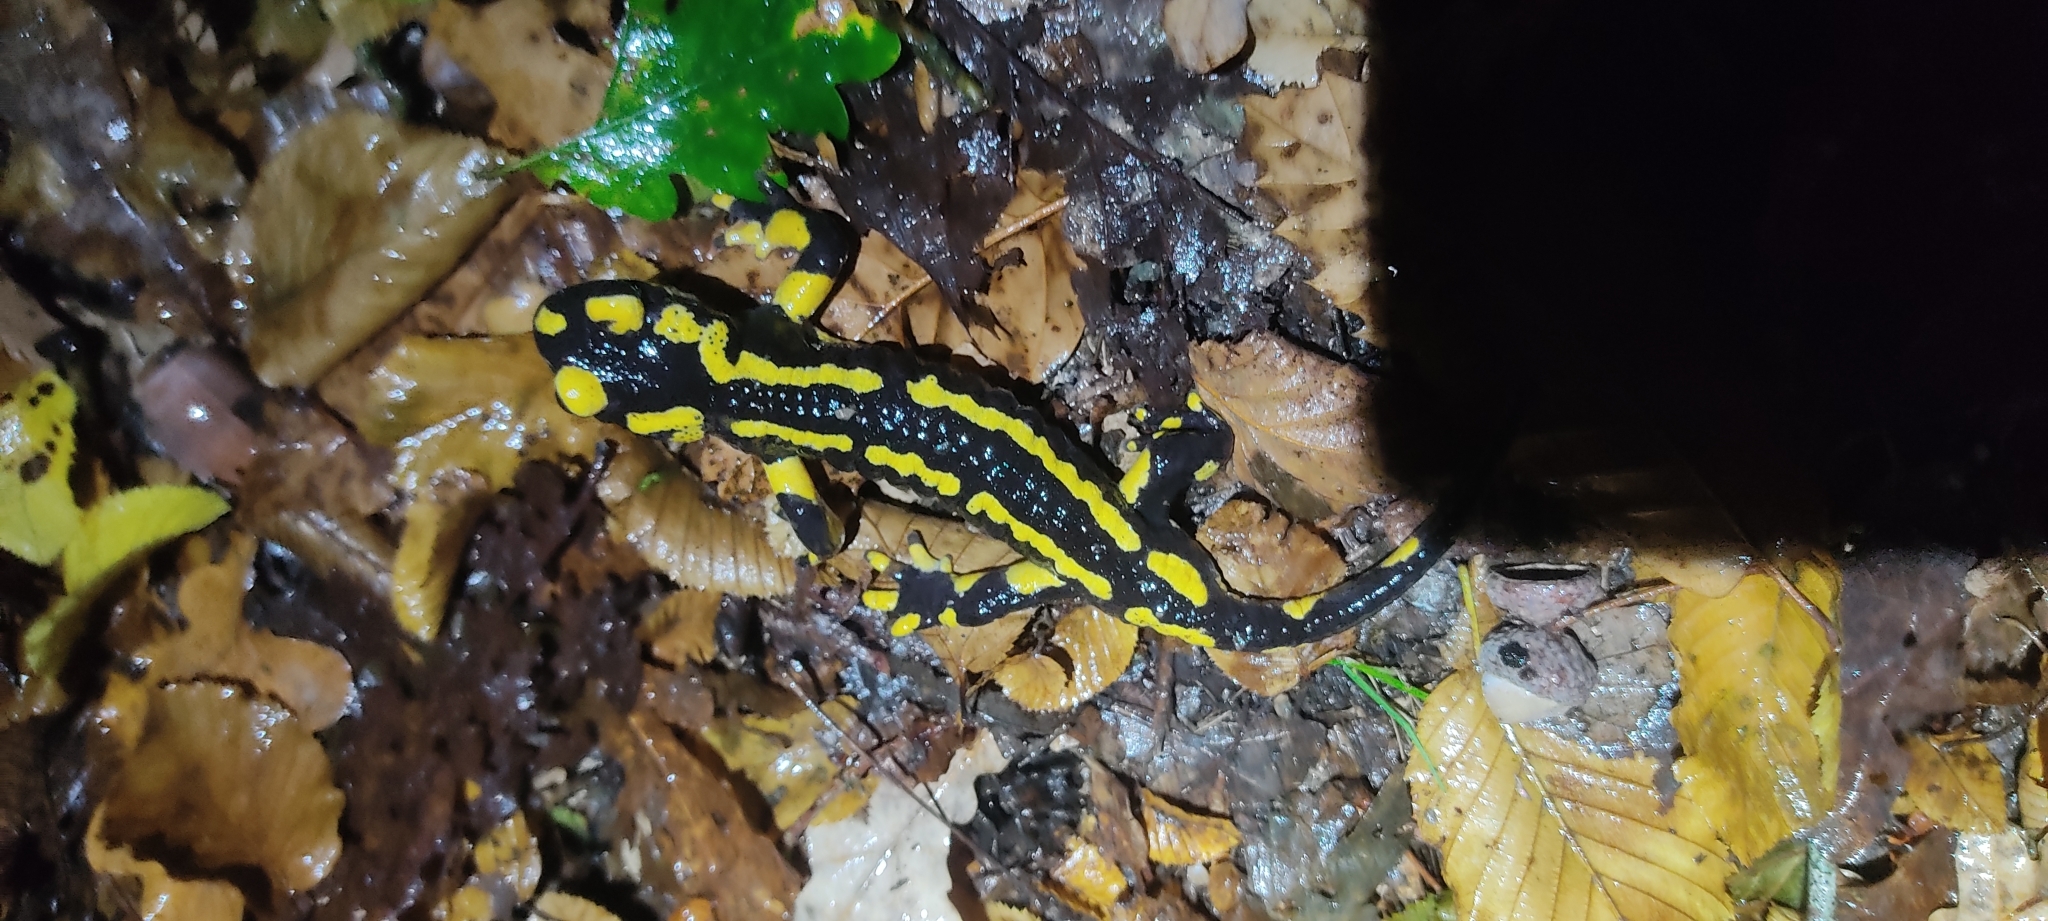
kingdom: Animalia
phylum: Chordata
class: Amphibia
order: Caudata
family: Salamandridae
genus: Salamandra
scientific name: Salamandra salamandra
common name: Fire salamander
